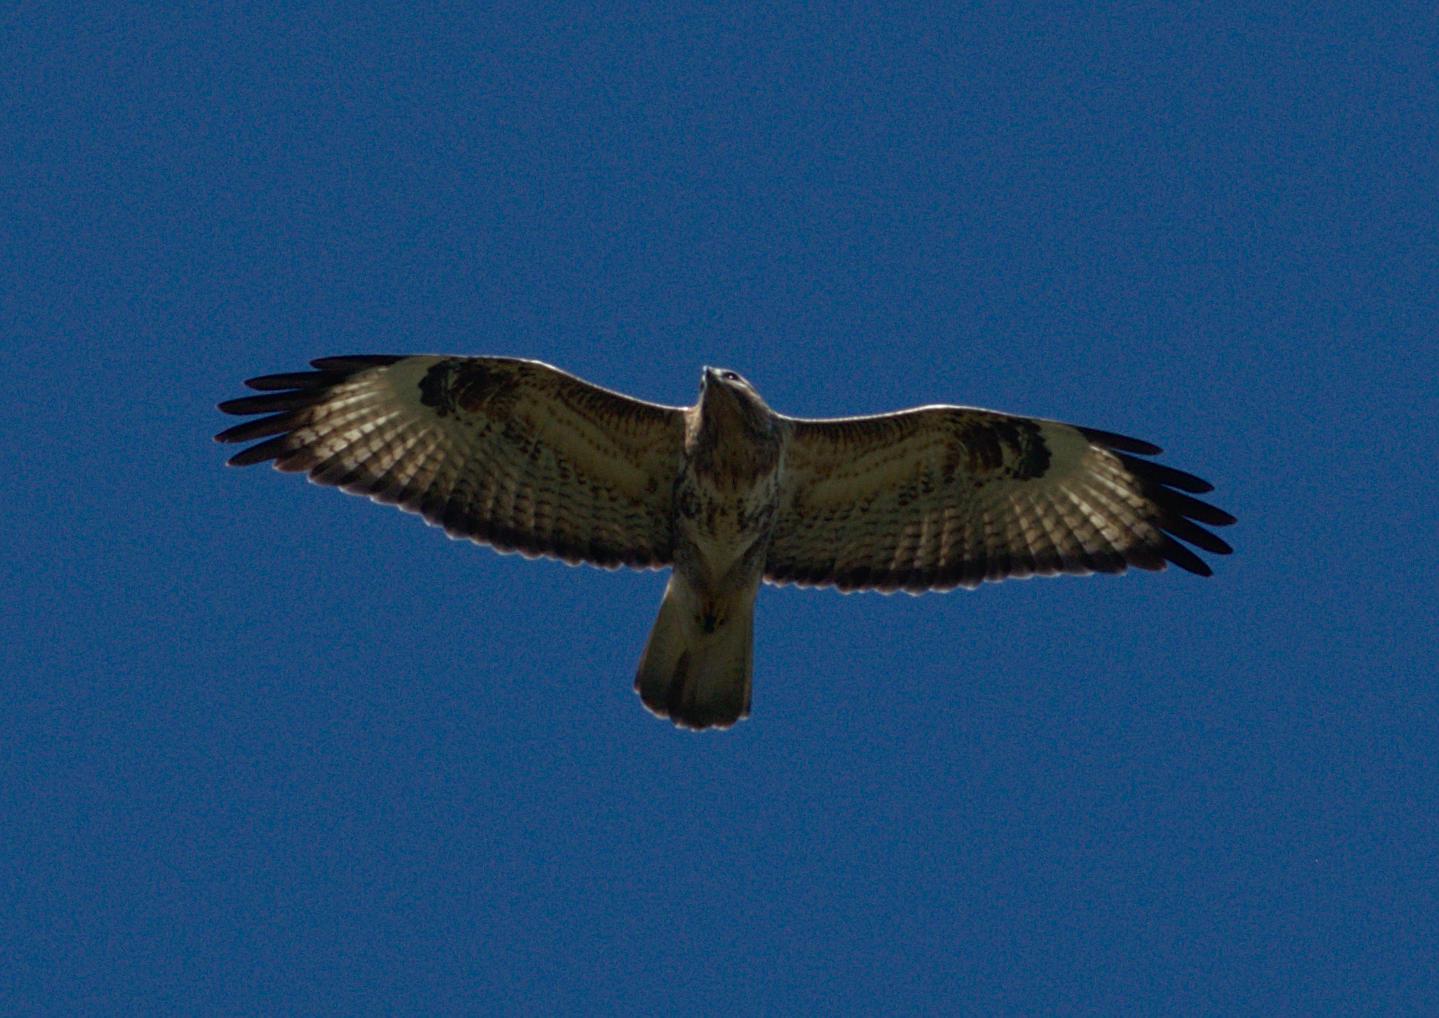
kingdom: Animalia
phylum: Chordata
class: Aves
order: Accipitriformes
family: Accipitridae
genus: Buteo
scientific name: Buteo refectus
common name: Himalayan buzzard
